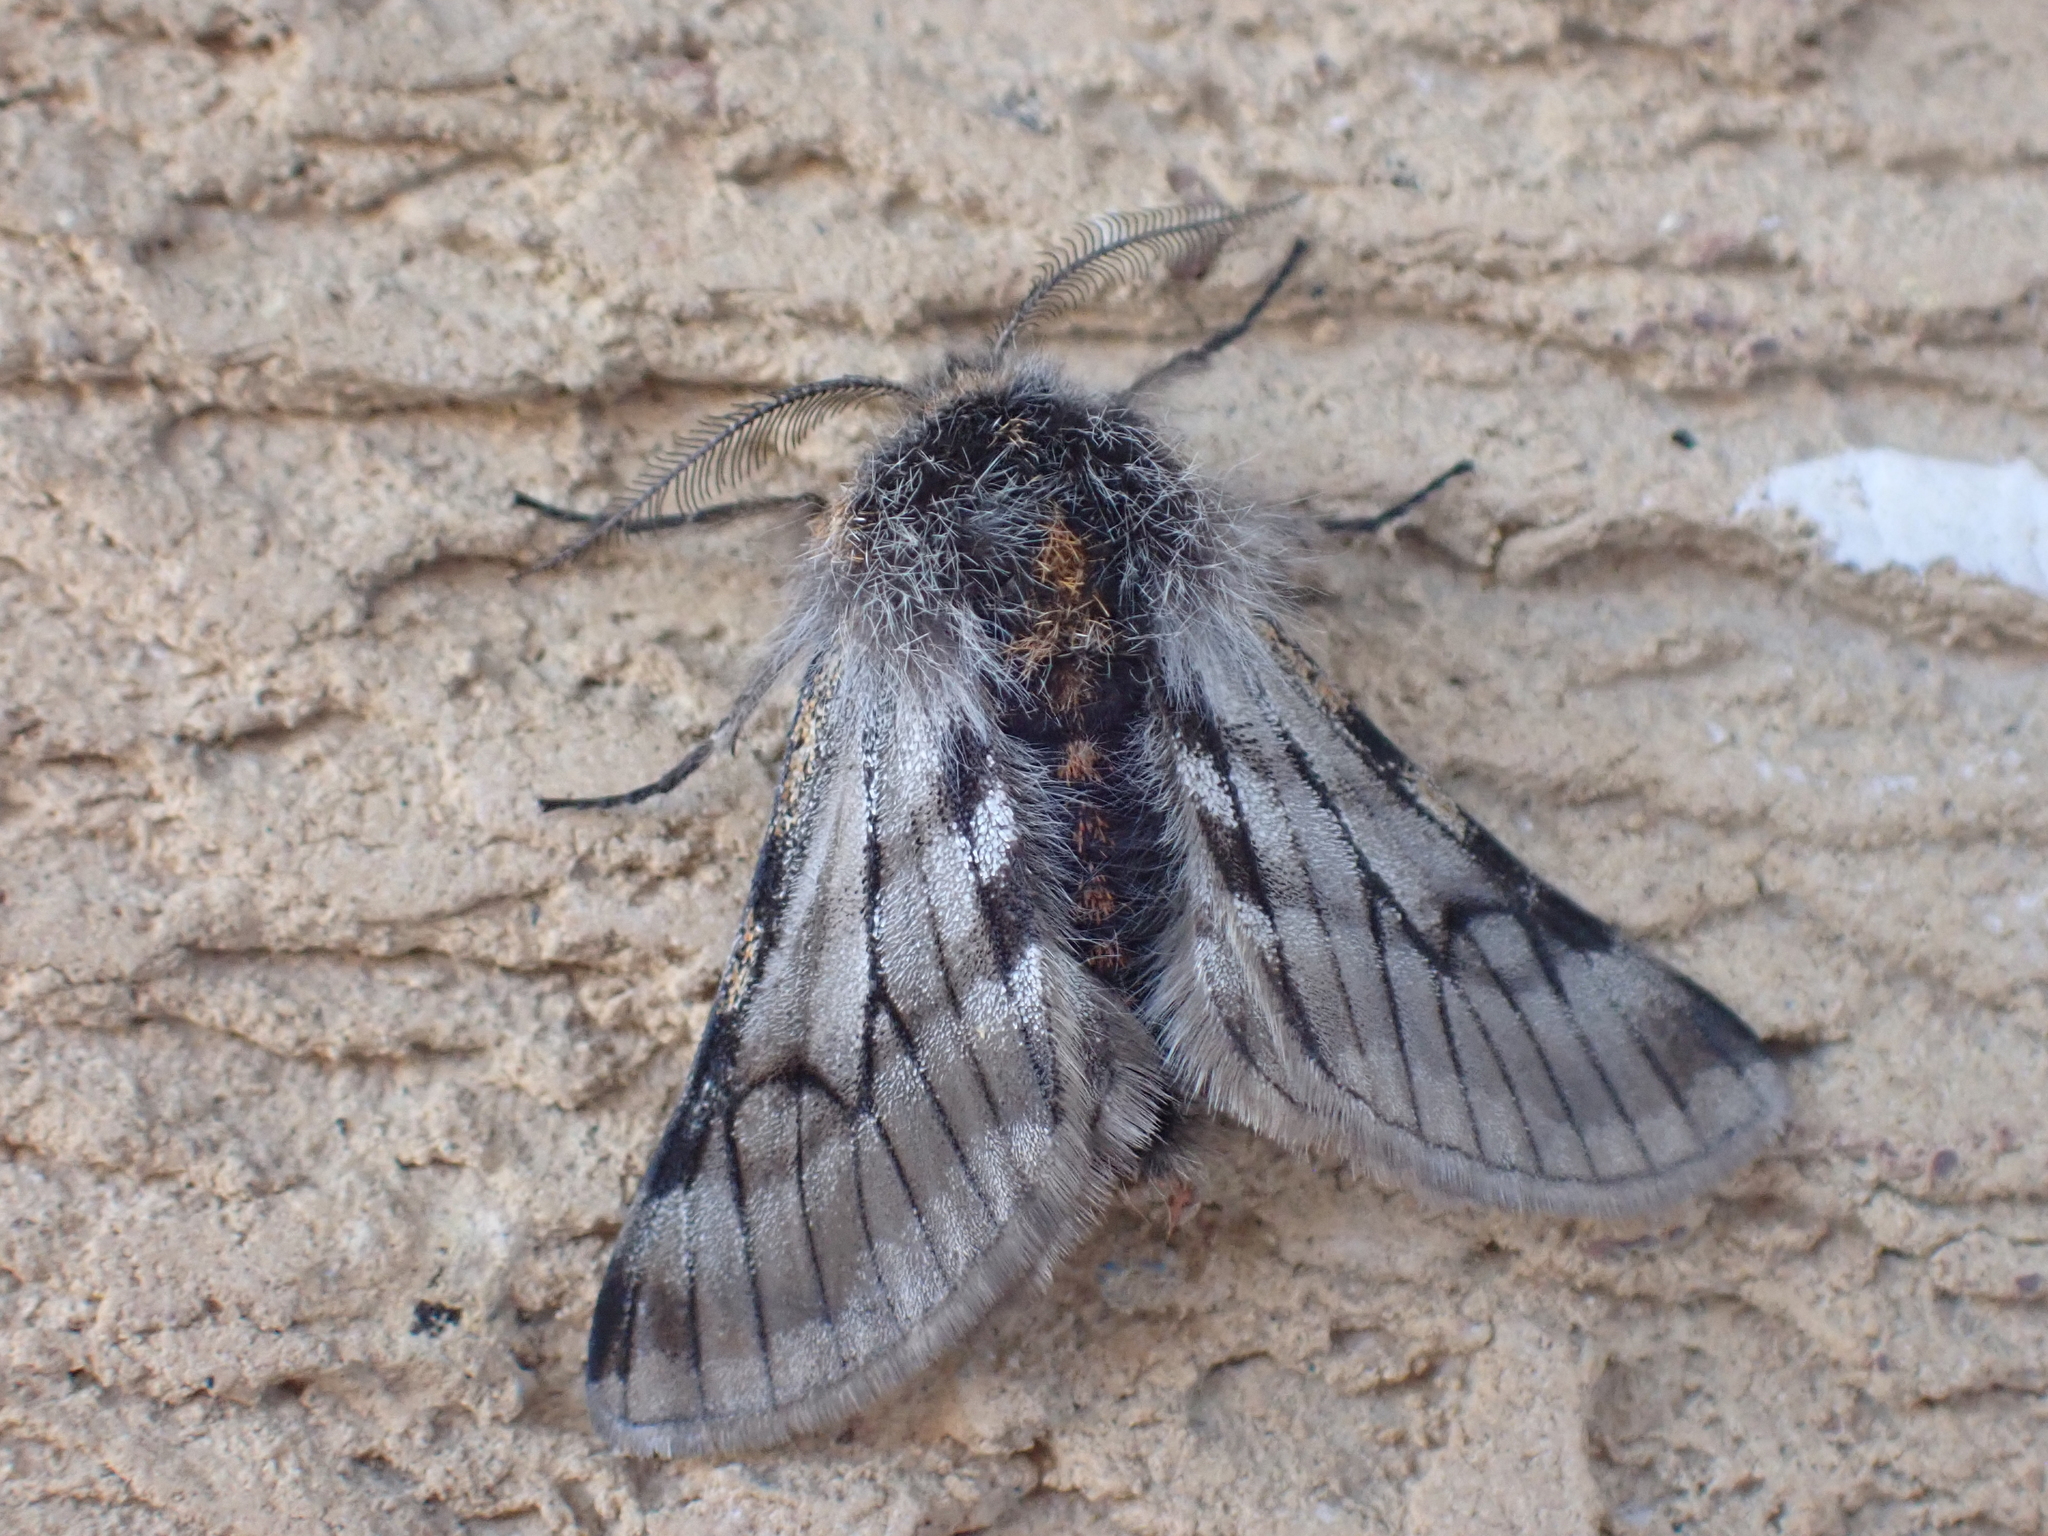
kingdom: Animalia
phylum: Arthropoda
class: Insecta
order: Lepidoptera
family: Geometridae
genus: Lycia
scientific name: Lycia rachelae
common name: Twilight moth
